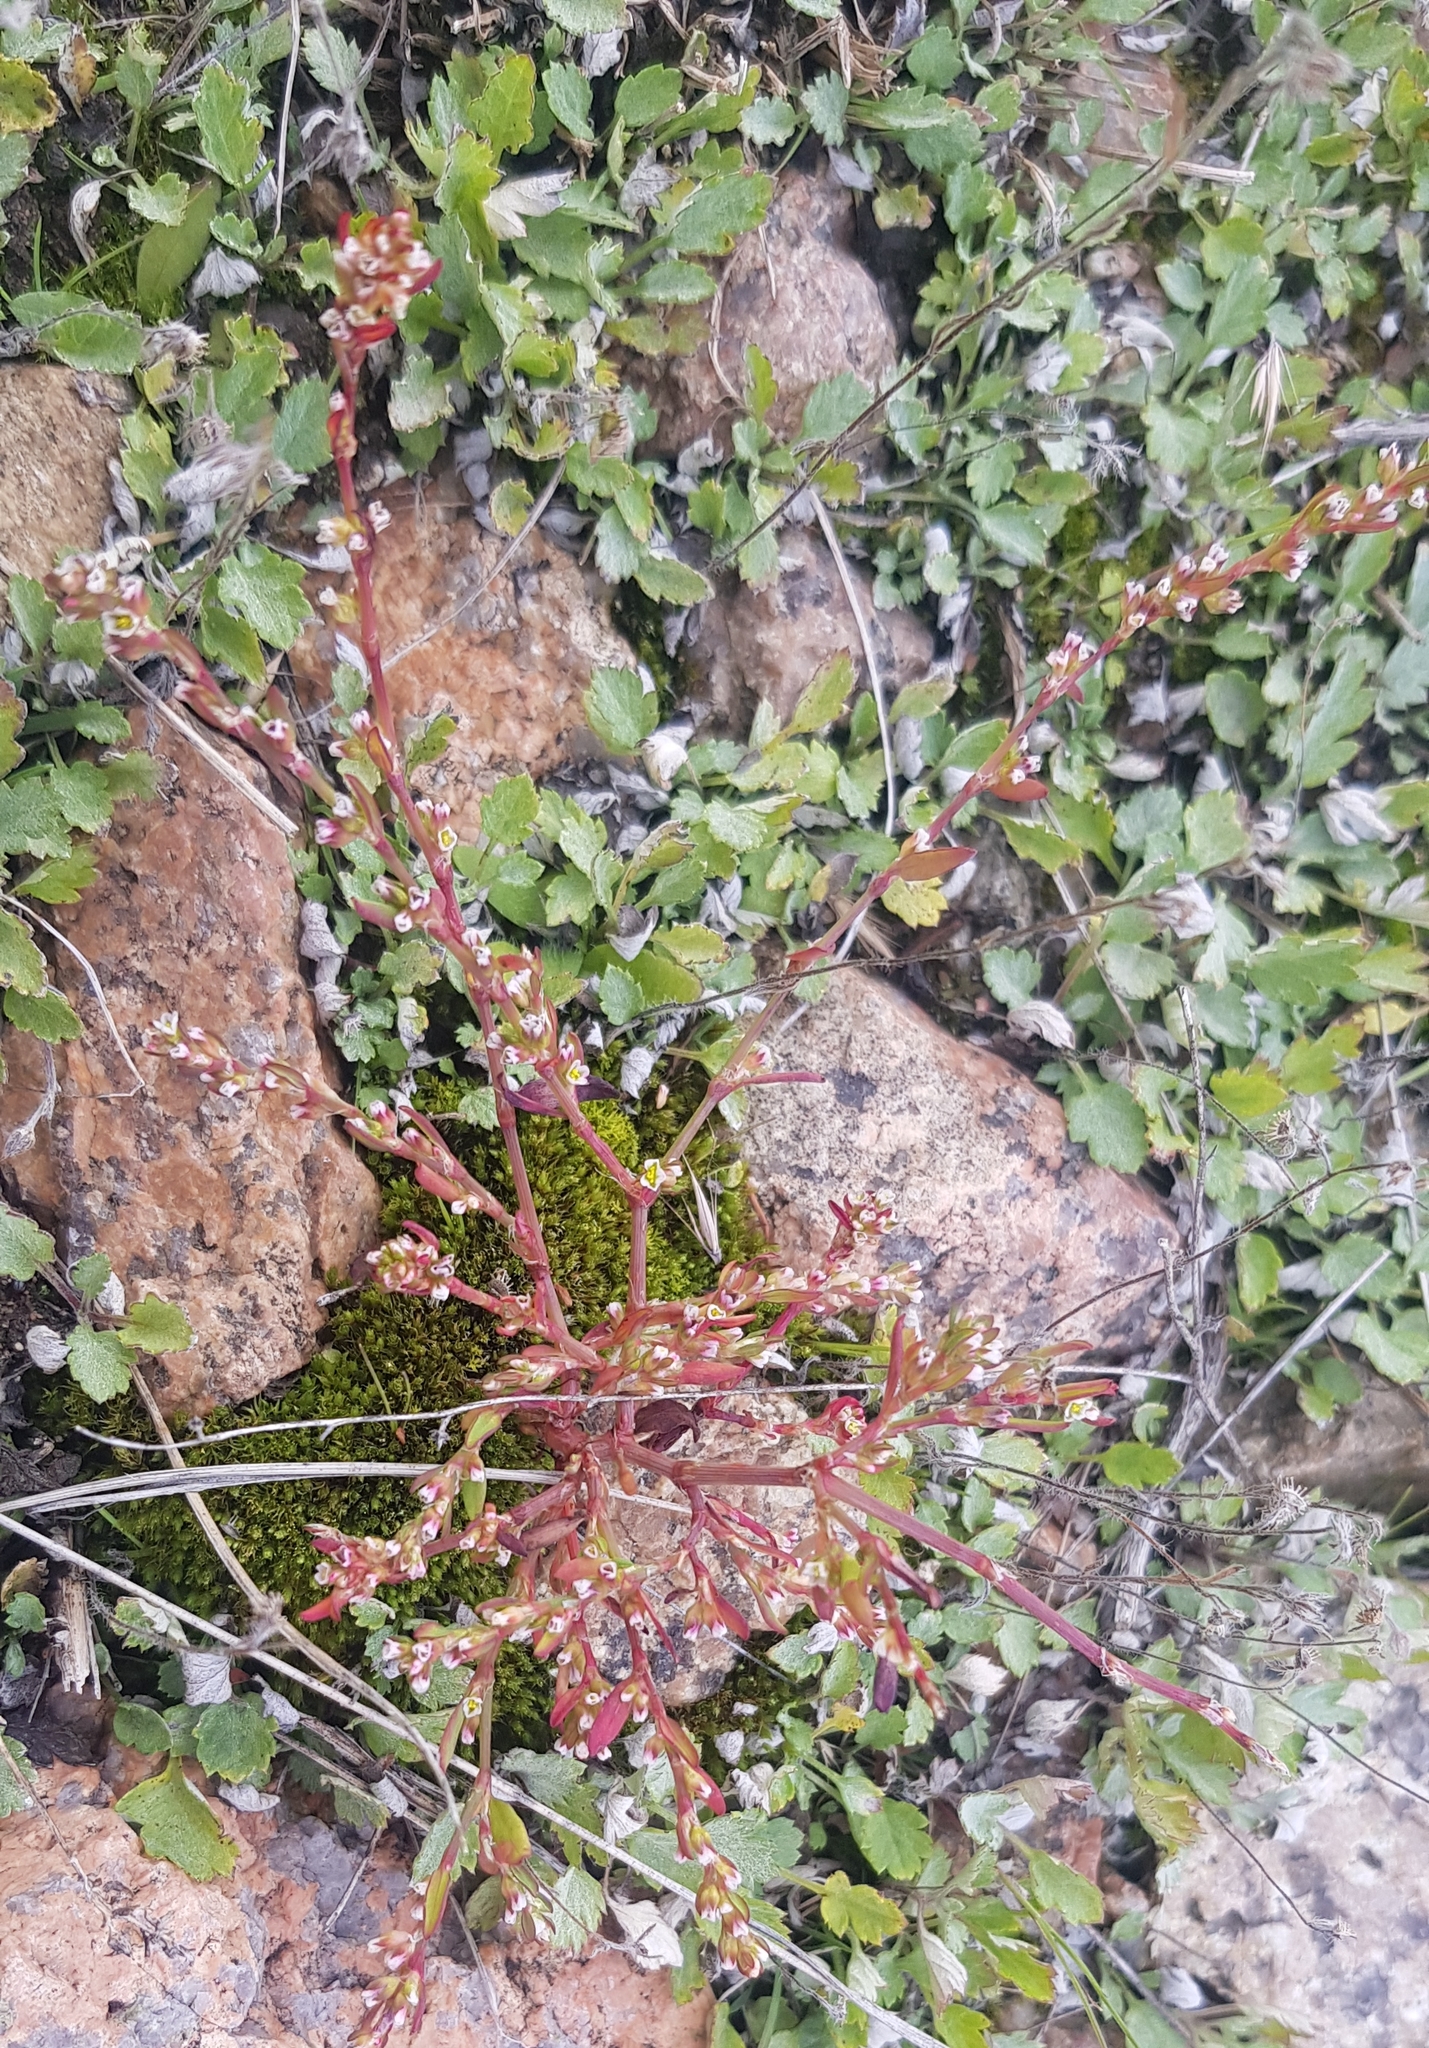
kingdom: Plantae
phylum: Tracheophyta
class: Magnoliopsida
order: Caryophyllales
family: Polygonaceae
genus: Polygonum
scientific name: Polygonum aviculare
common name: Prostrate knotweed
